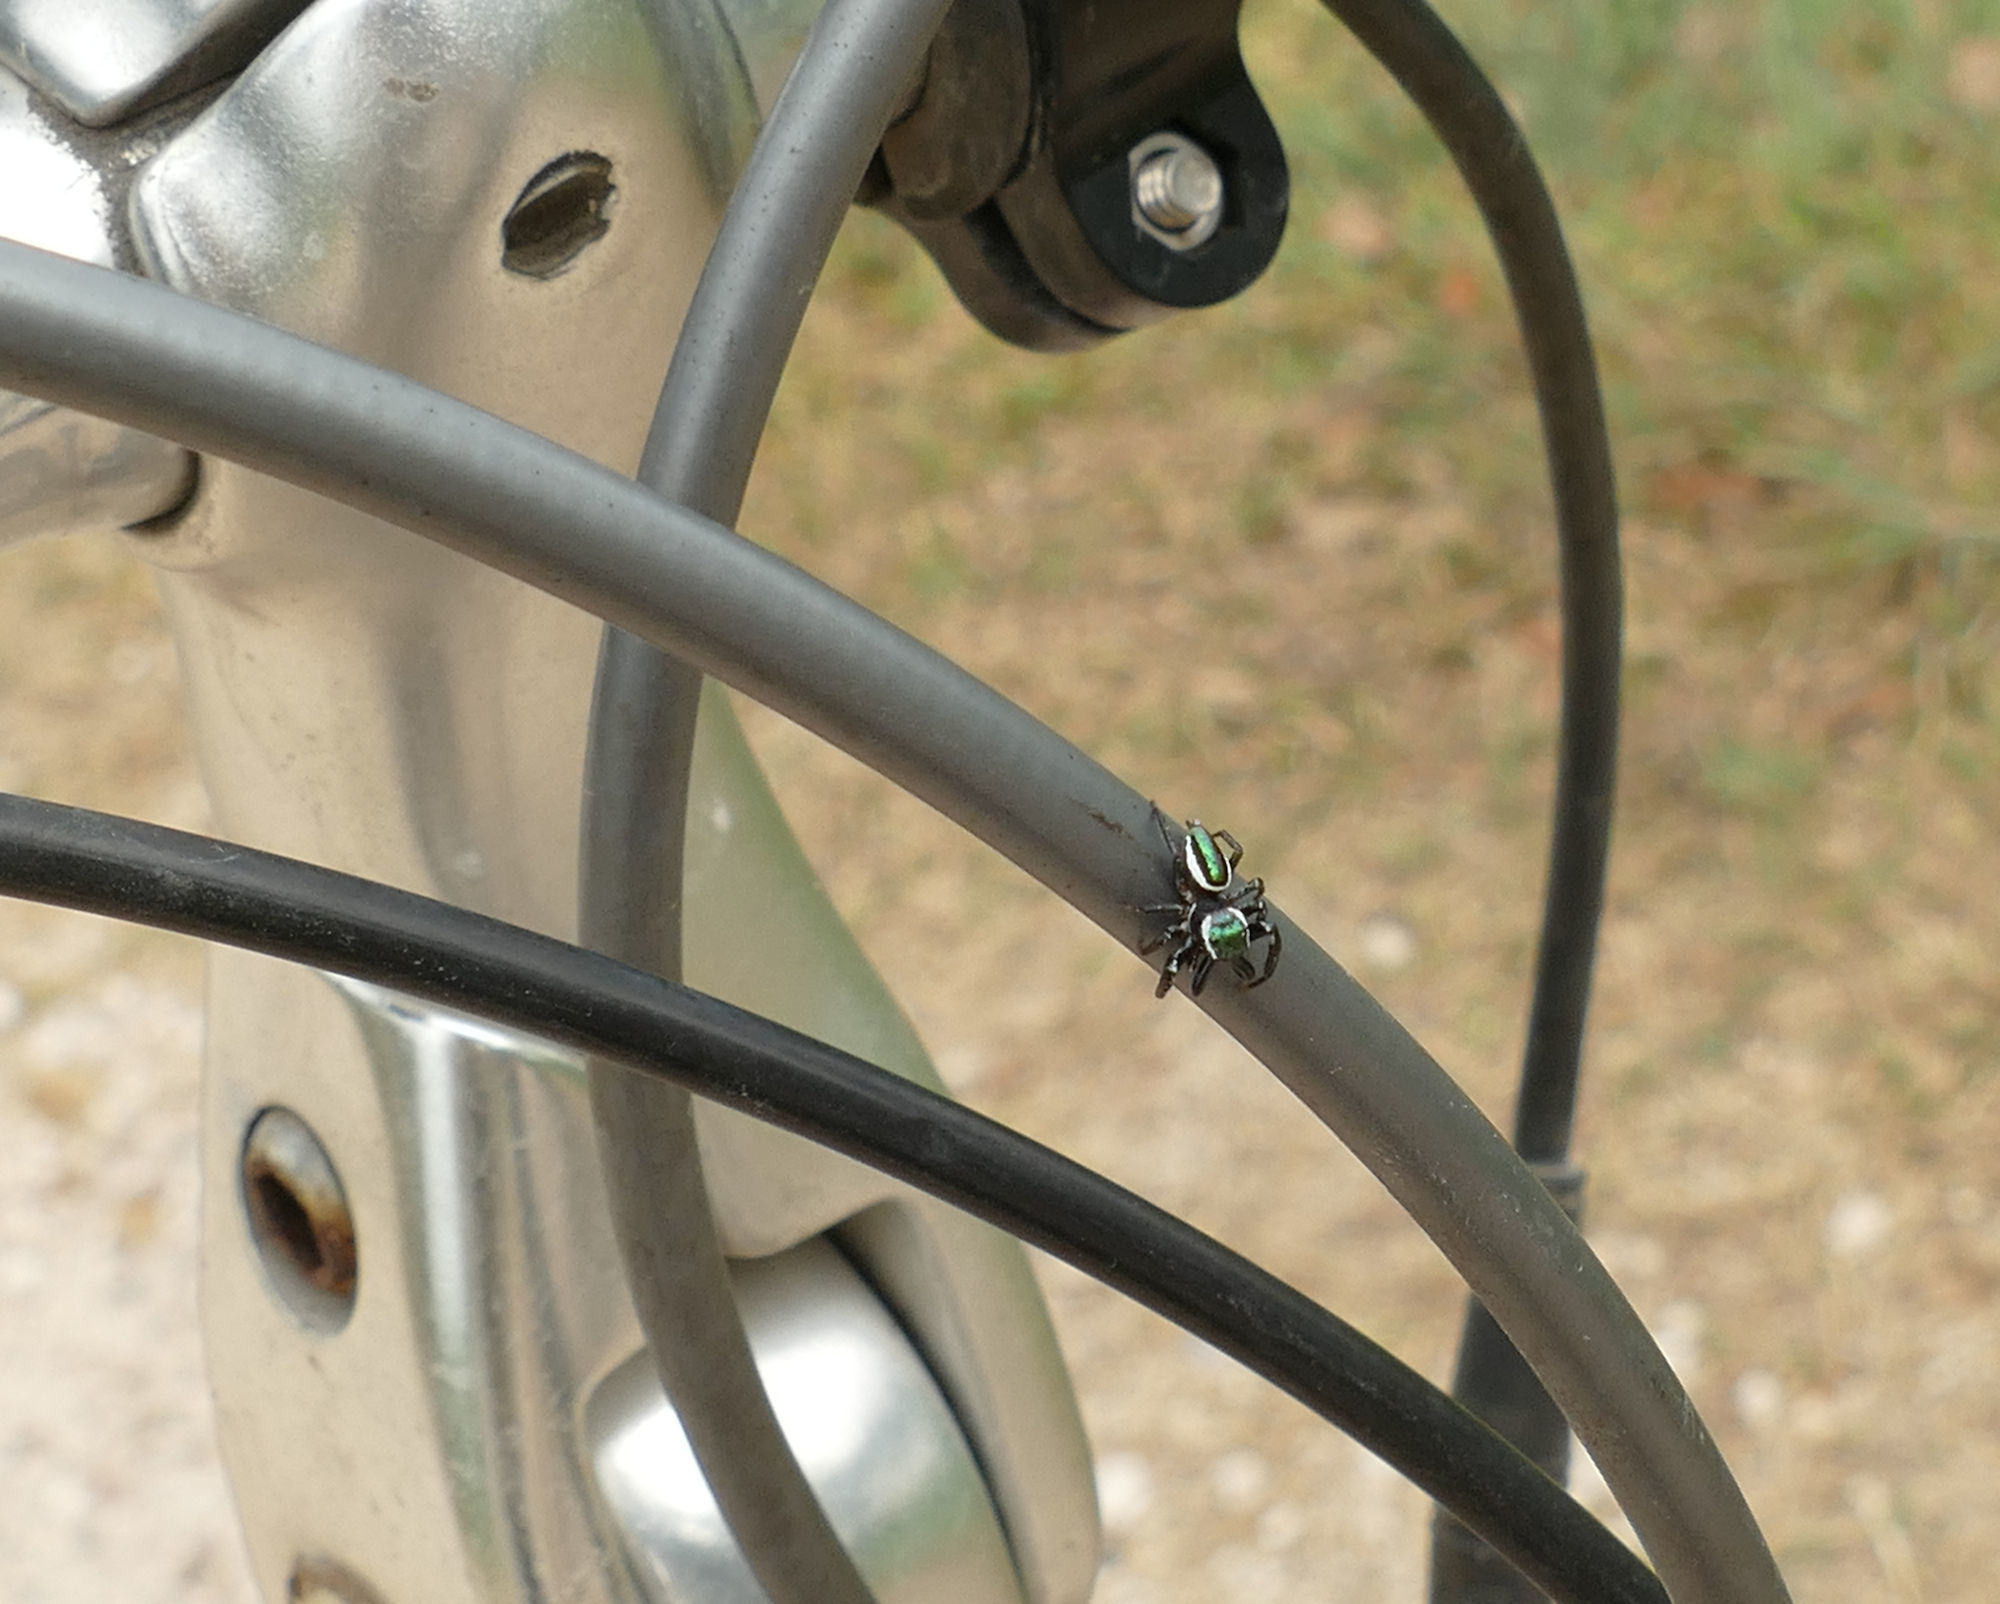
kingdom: Animalia
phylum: Arthropoda
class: Arachnida
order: Araneae
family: Salticidae
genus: Messua
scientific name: Messua limbata
